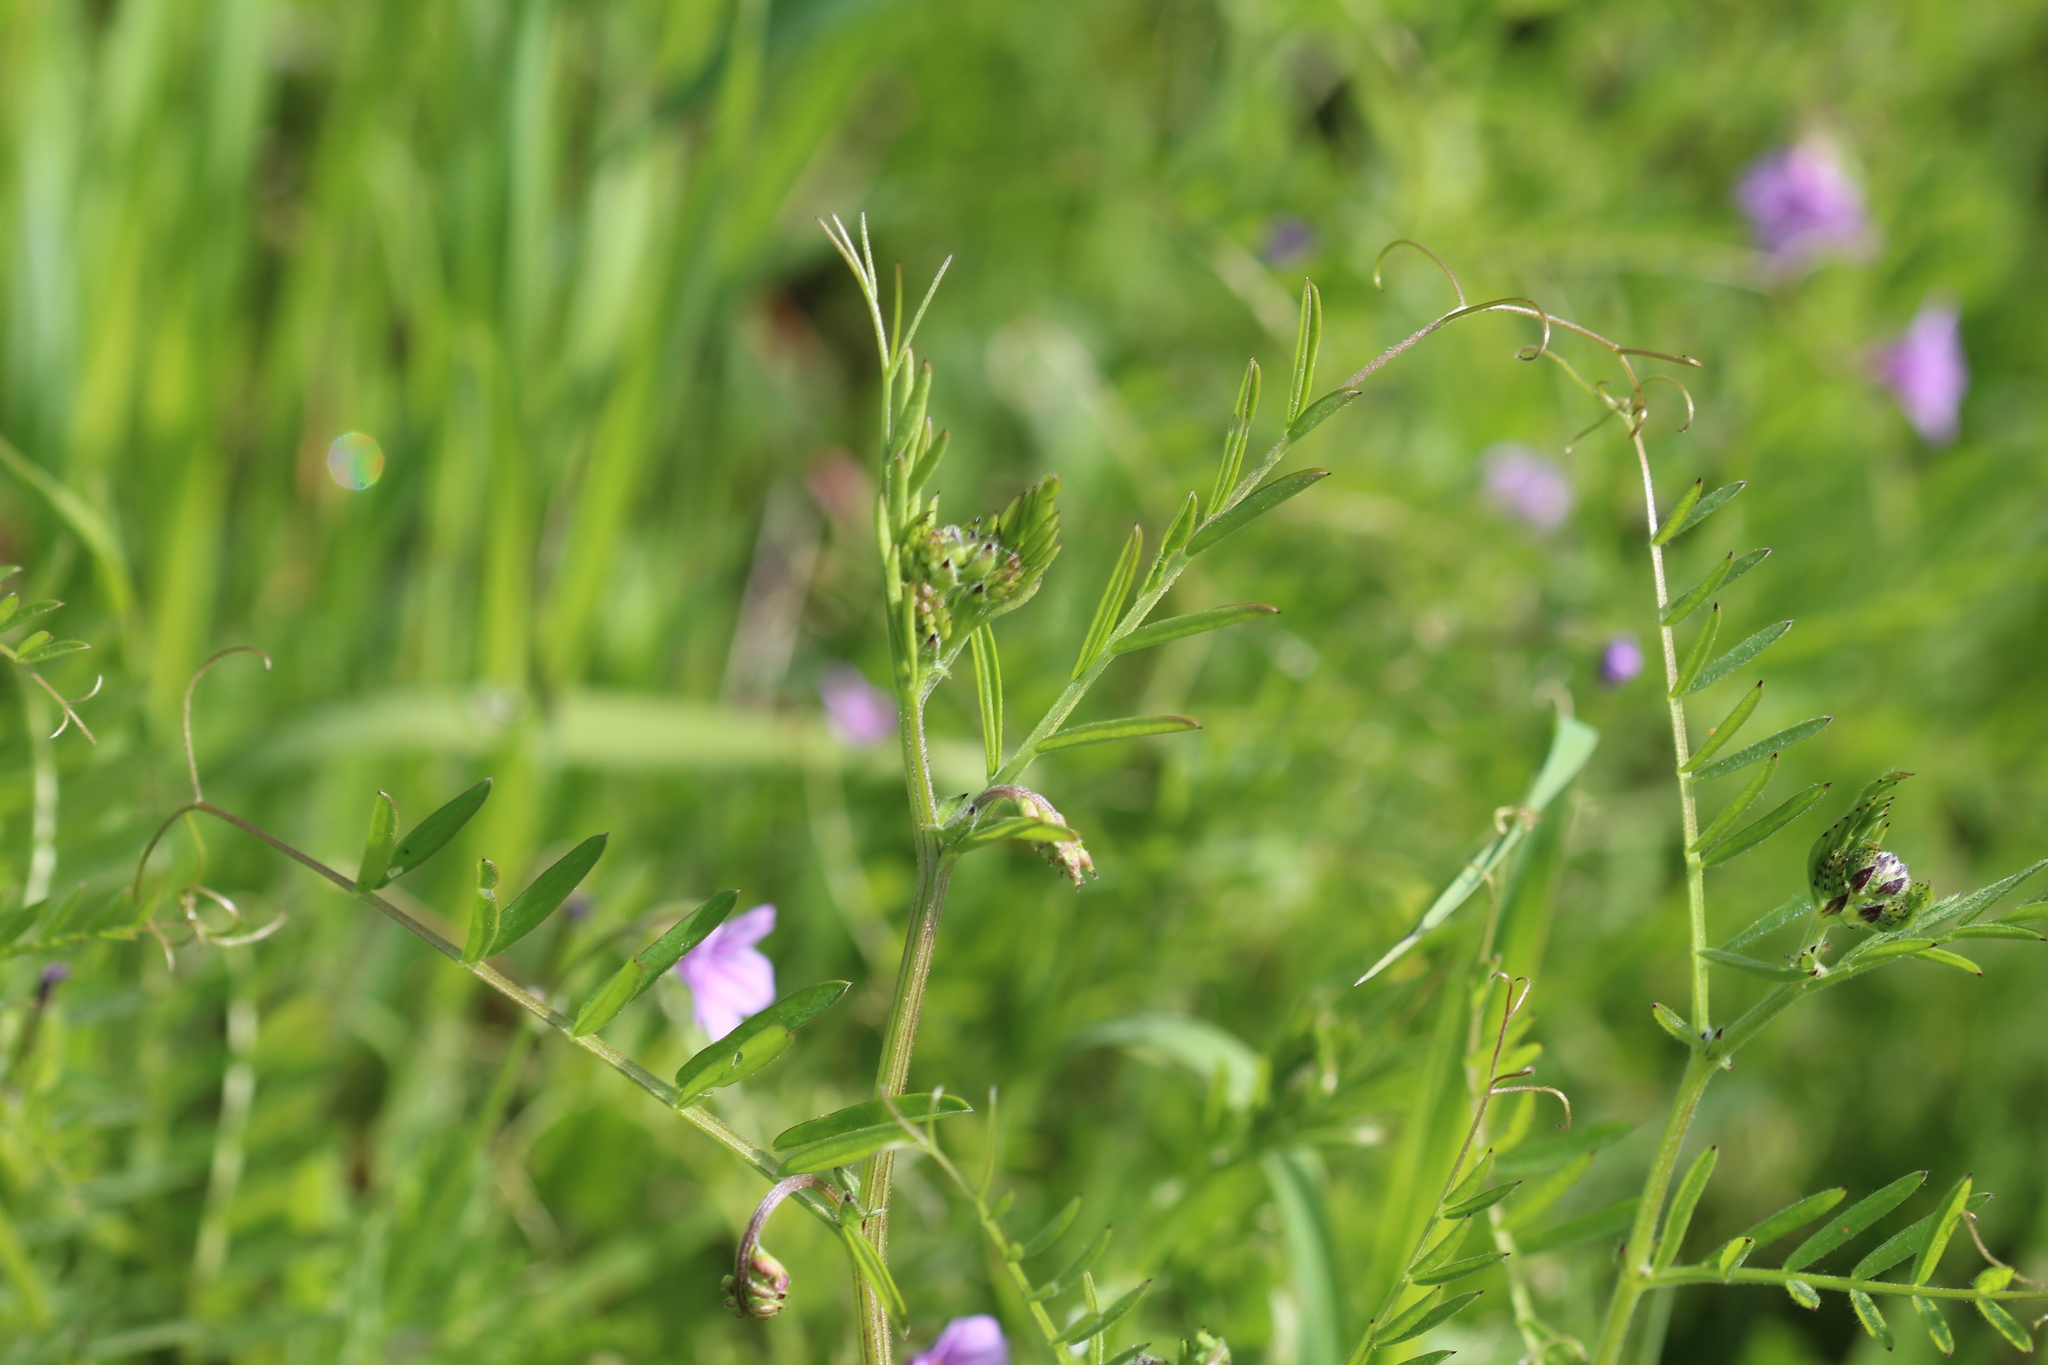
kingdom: Plantae
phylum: Tracheophyta
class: Magnoliopsida
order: Fabales
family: Fabaceae
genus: Vicia
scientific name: Vicia villosa
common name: Fodder vetch
